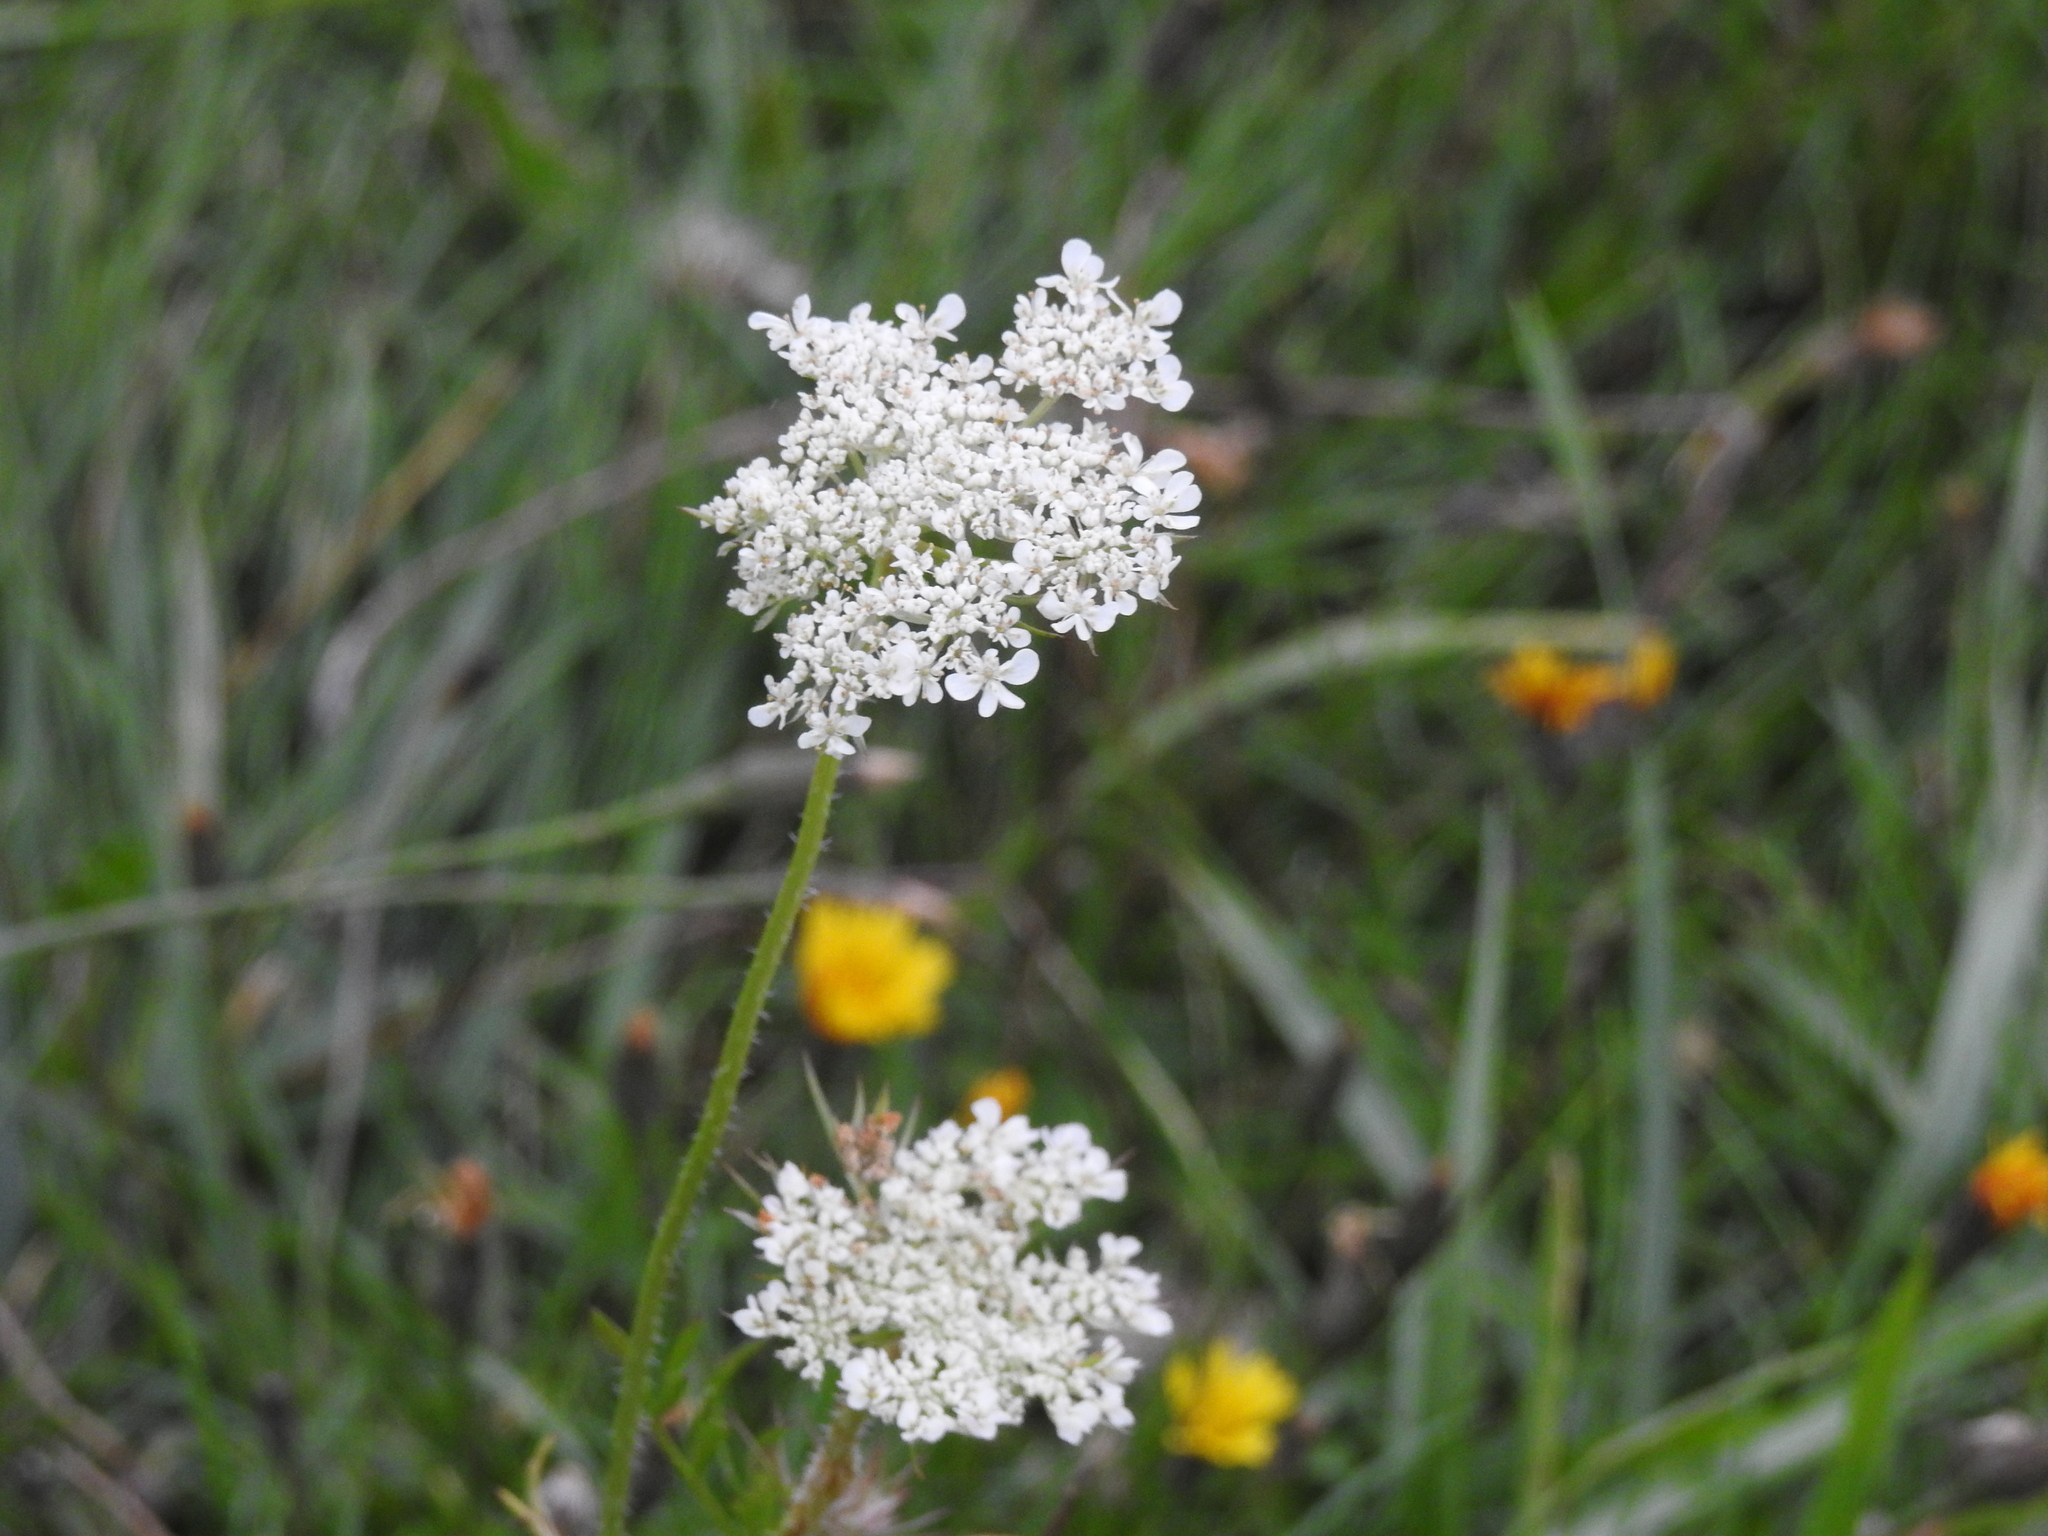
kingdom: Plantae
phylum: Tracheophyta
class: Magnoliopsida
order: Apiales
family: Apiaceae
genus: Daucus
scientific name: Daucus carota
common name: Wild carrot
